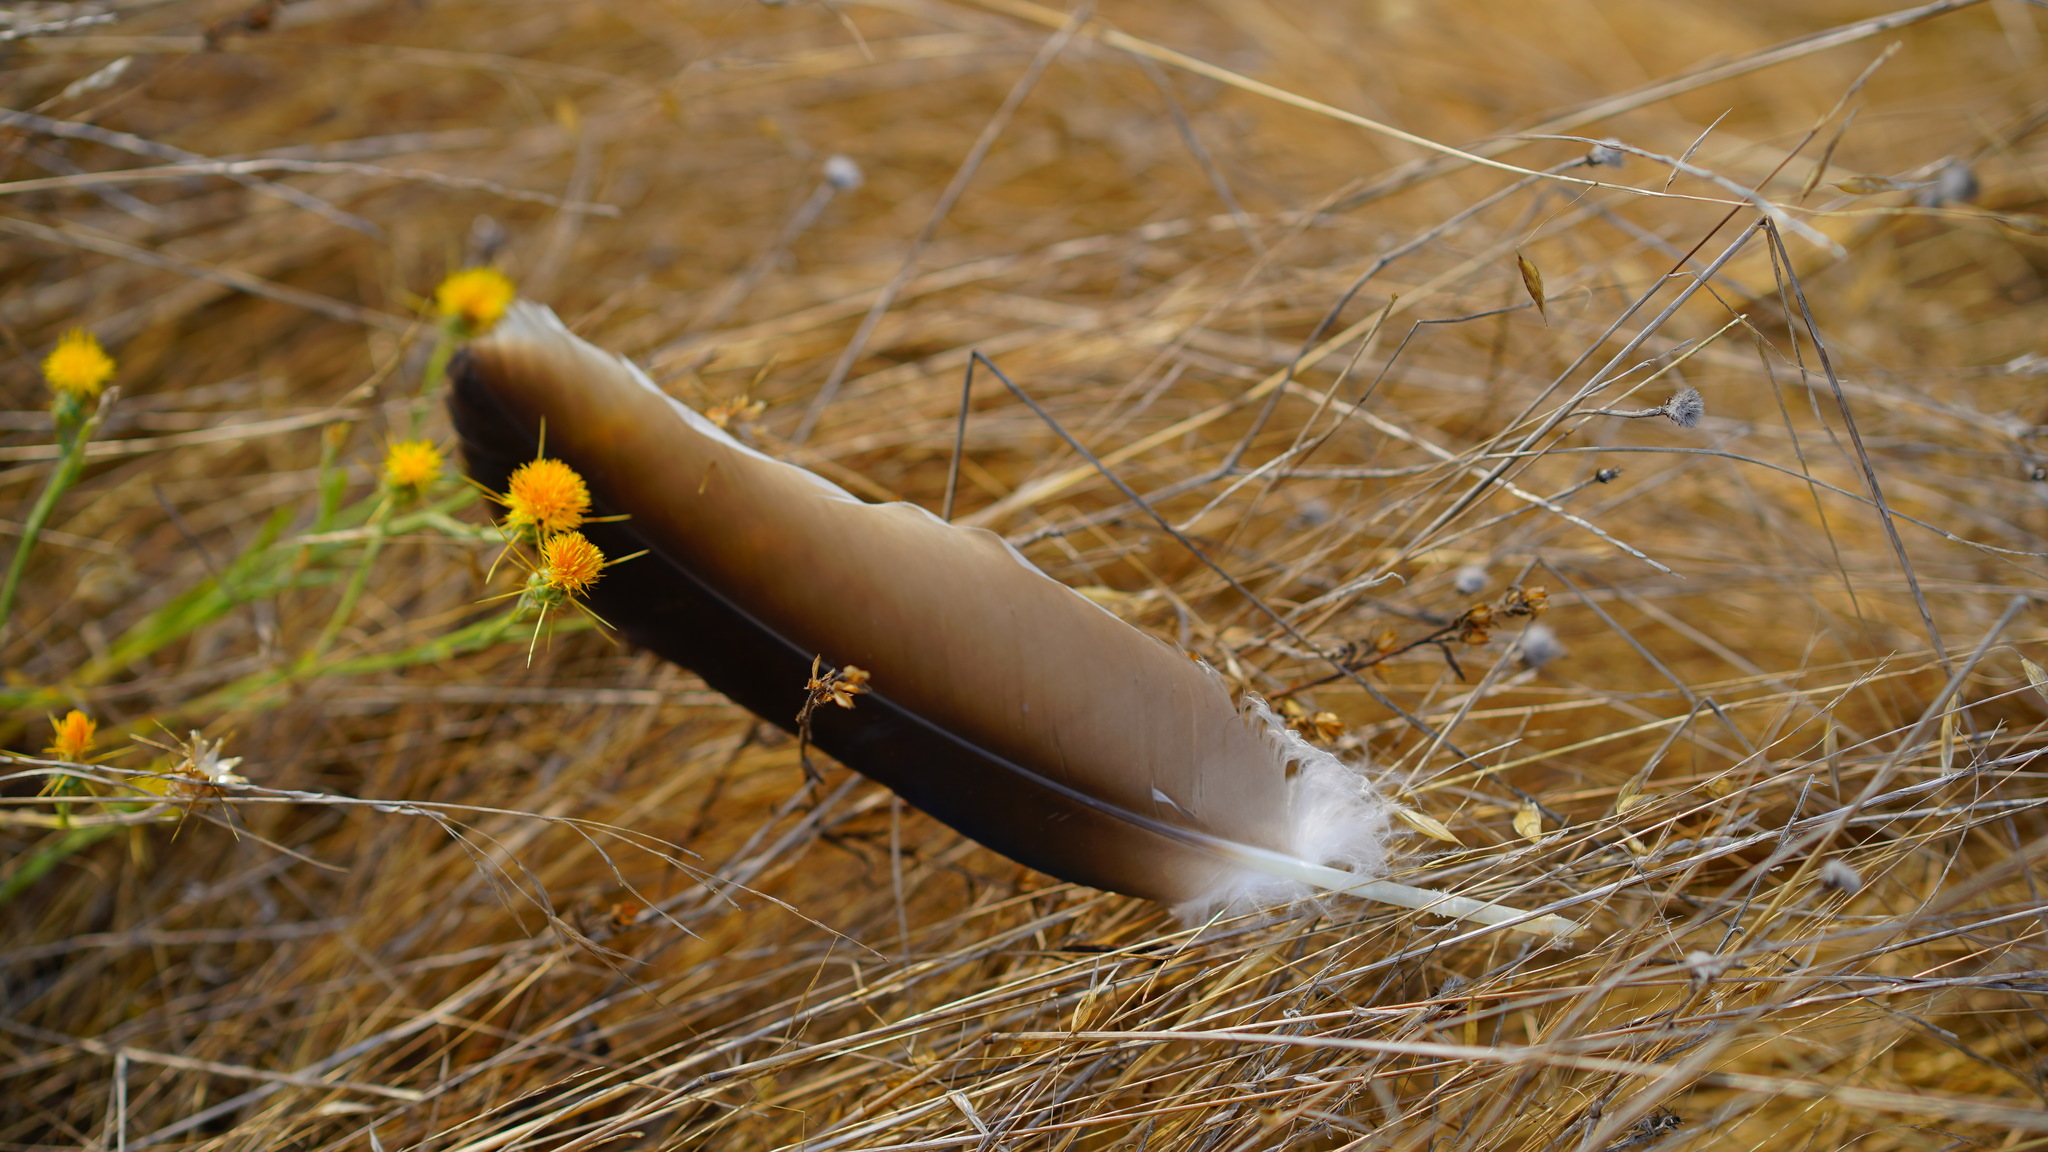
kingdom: Animalia
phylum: Chordata
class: Aves
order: Accipitriformes
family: Cathartidae
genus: Cathartes
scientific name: Cathartes aura
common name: Turkey vulture
